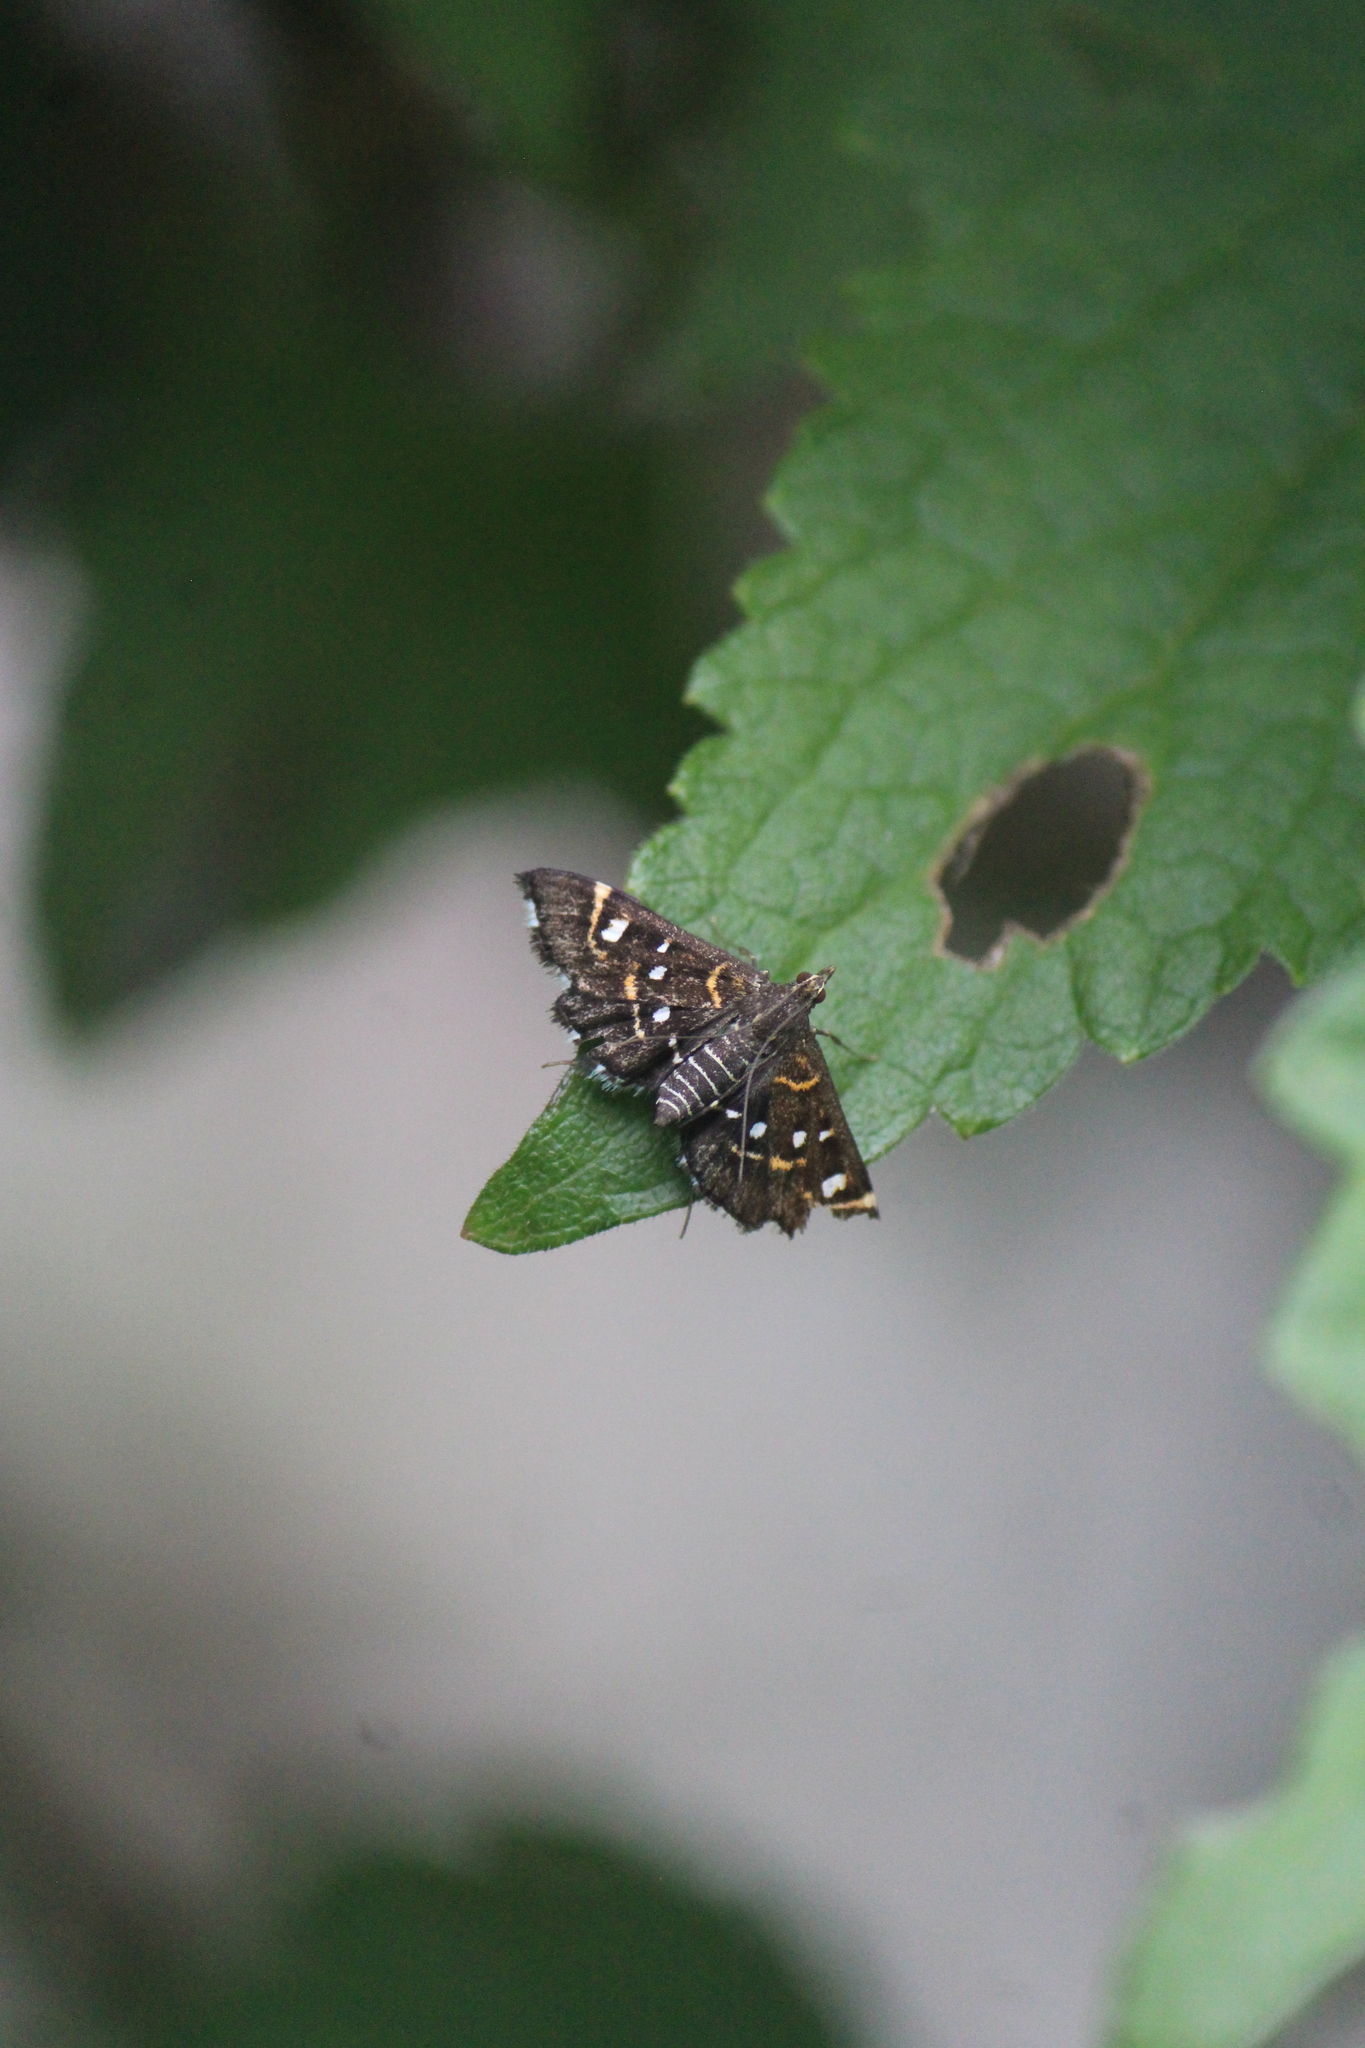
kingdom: Animalia
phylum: Arthropoda
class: Insecta
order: Lepidoptera
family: Crambidae
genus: Diathrausta
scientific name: Diathrausta harlequinalis
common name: Harlequin webworm moth
